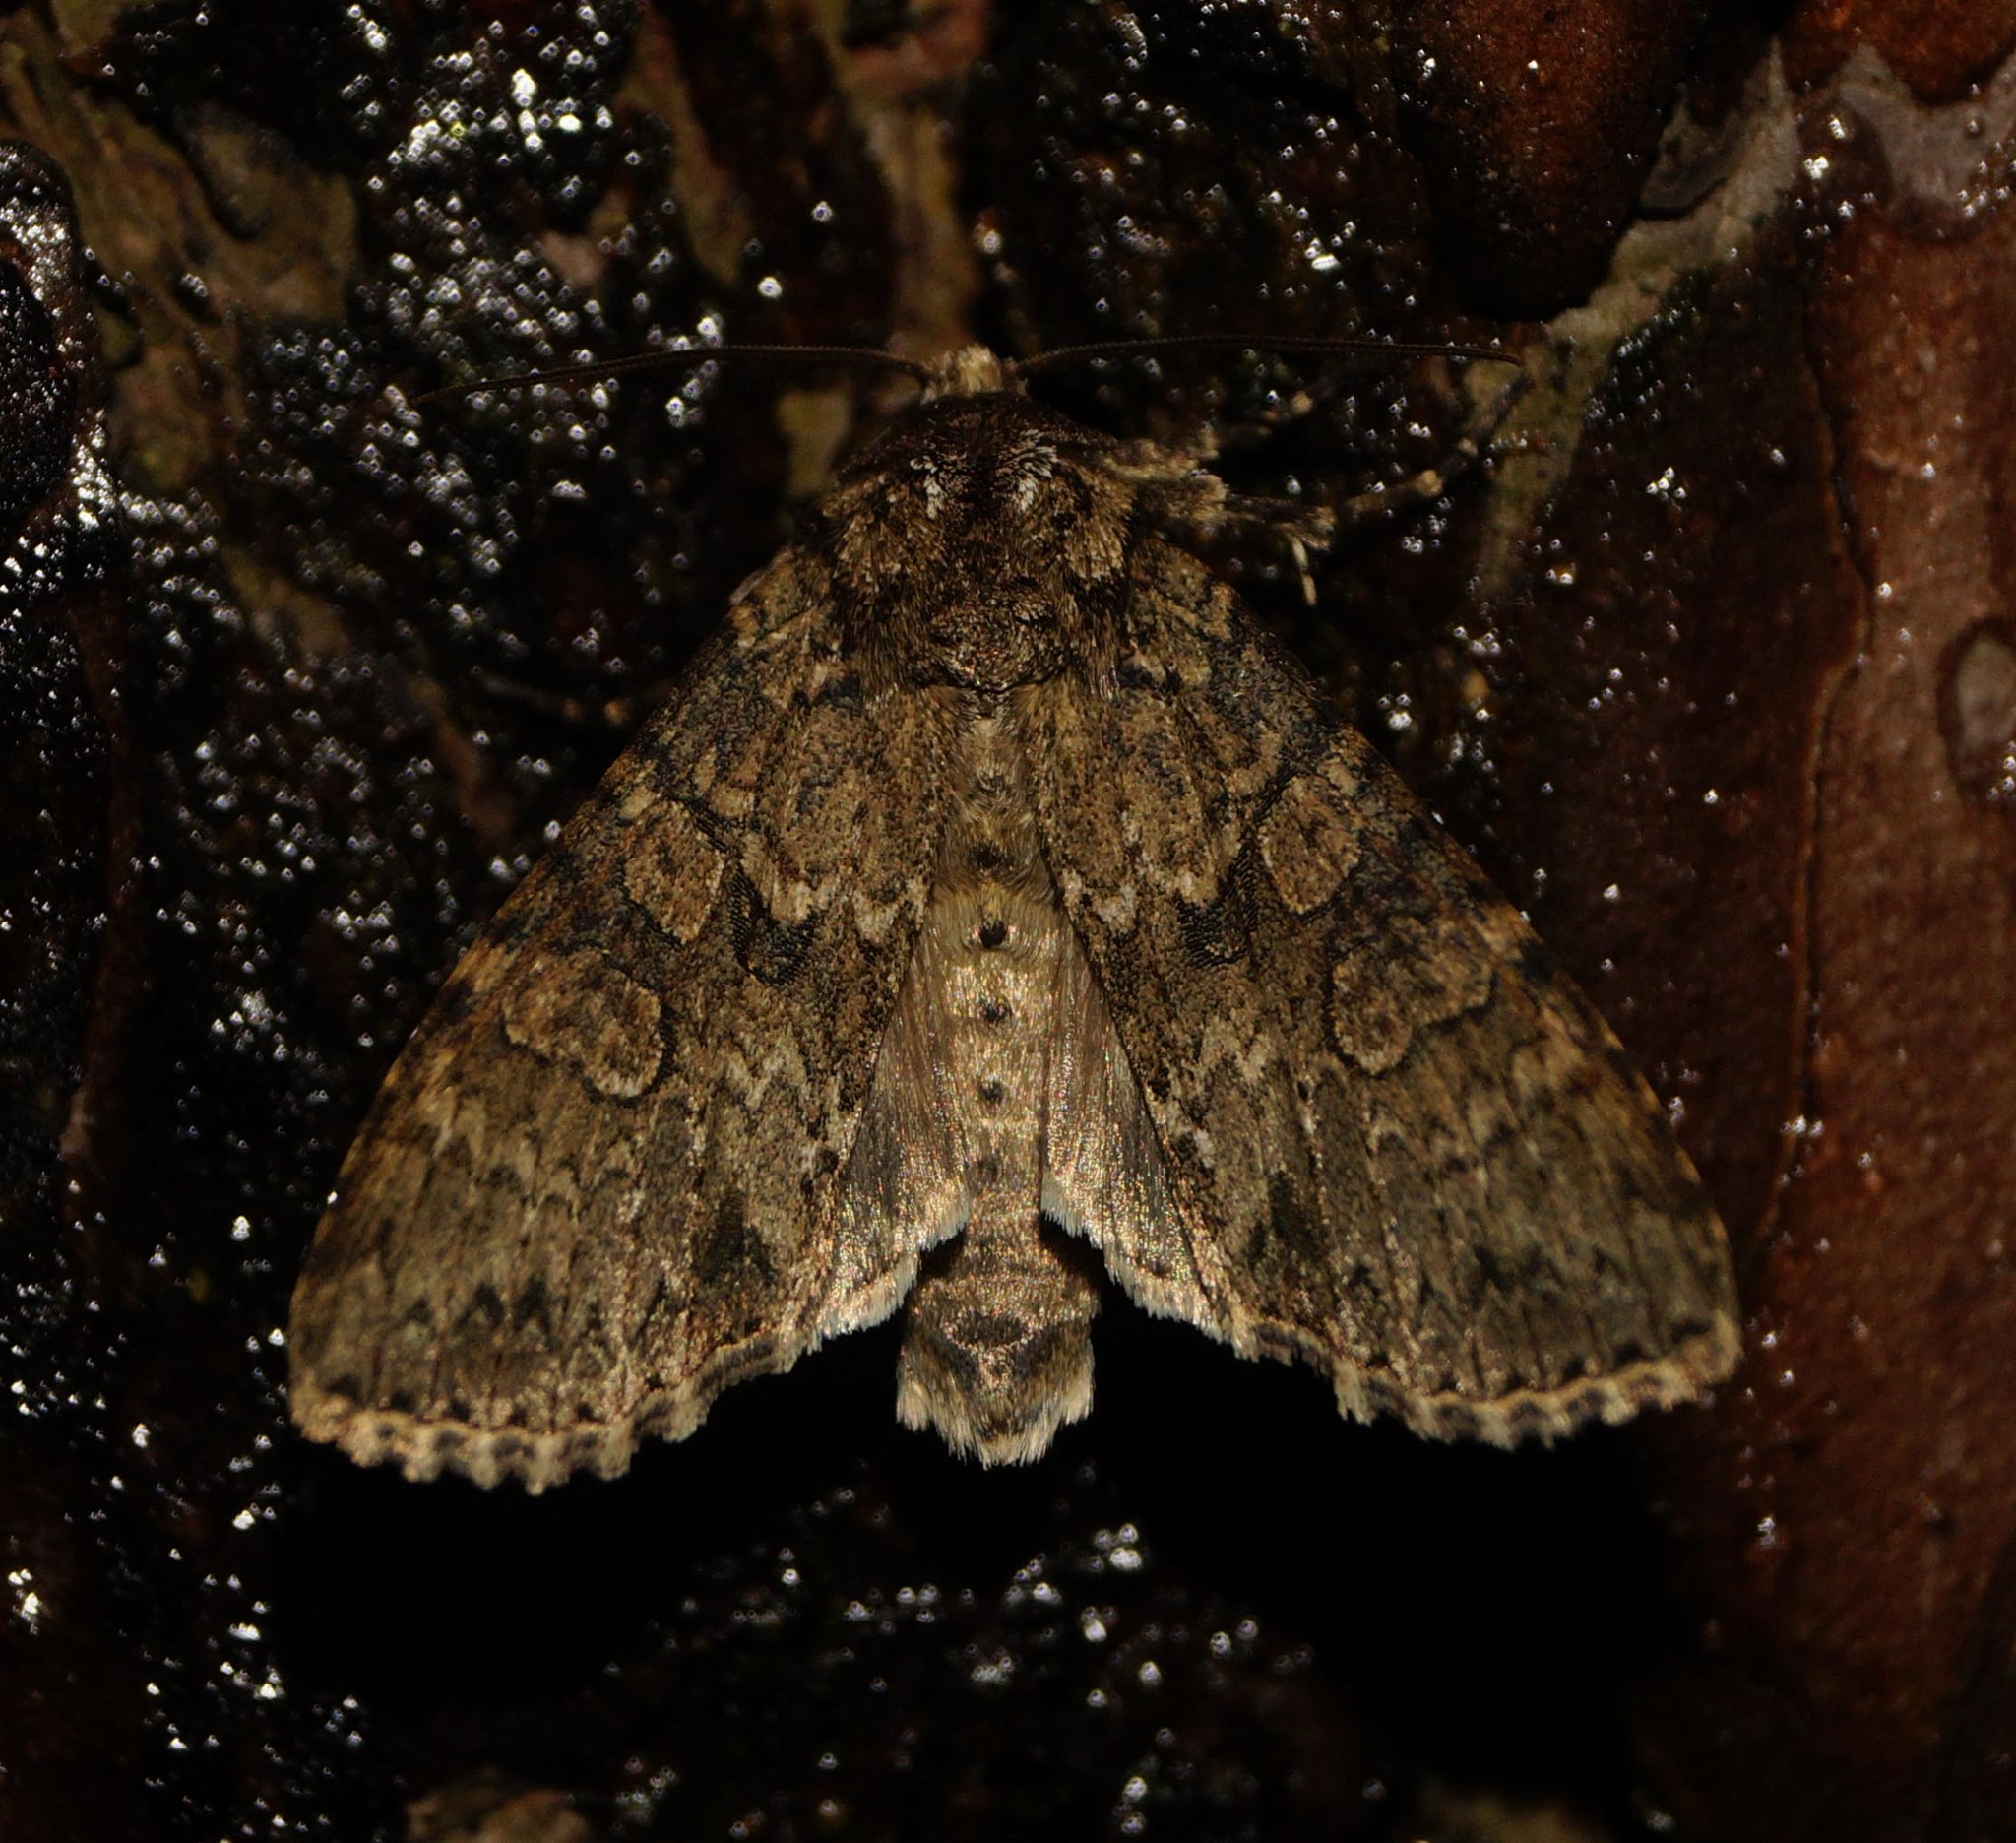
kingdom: Animalia
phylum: Arthropoda
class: Insecta
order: Lepidoptera
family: Noctuidae
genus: Polia
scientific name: Polia nebulosa
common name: Grey arches
